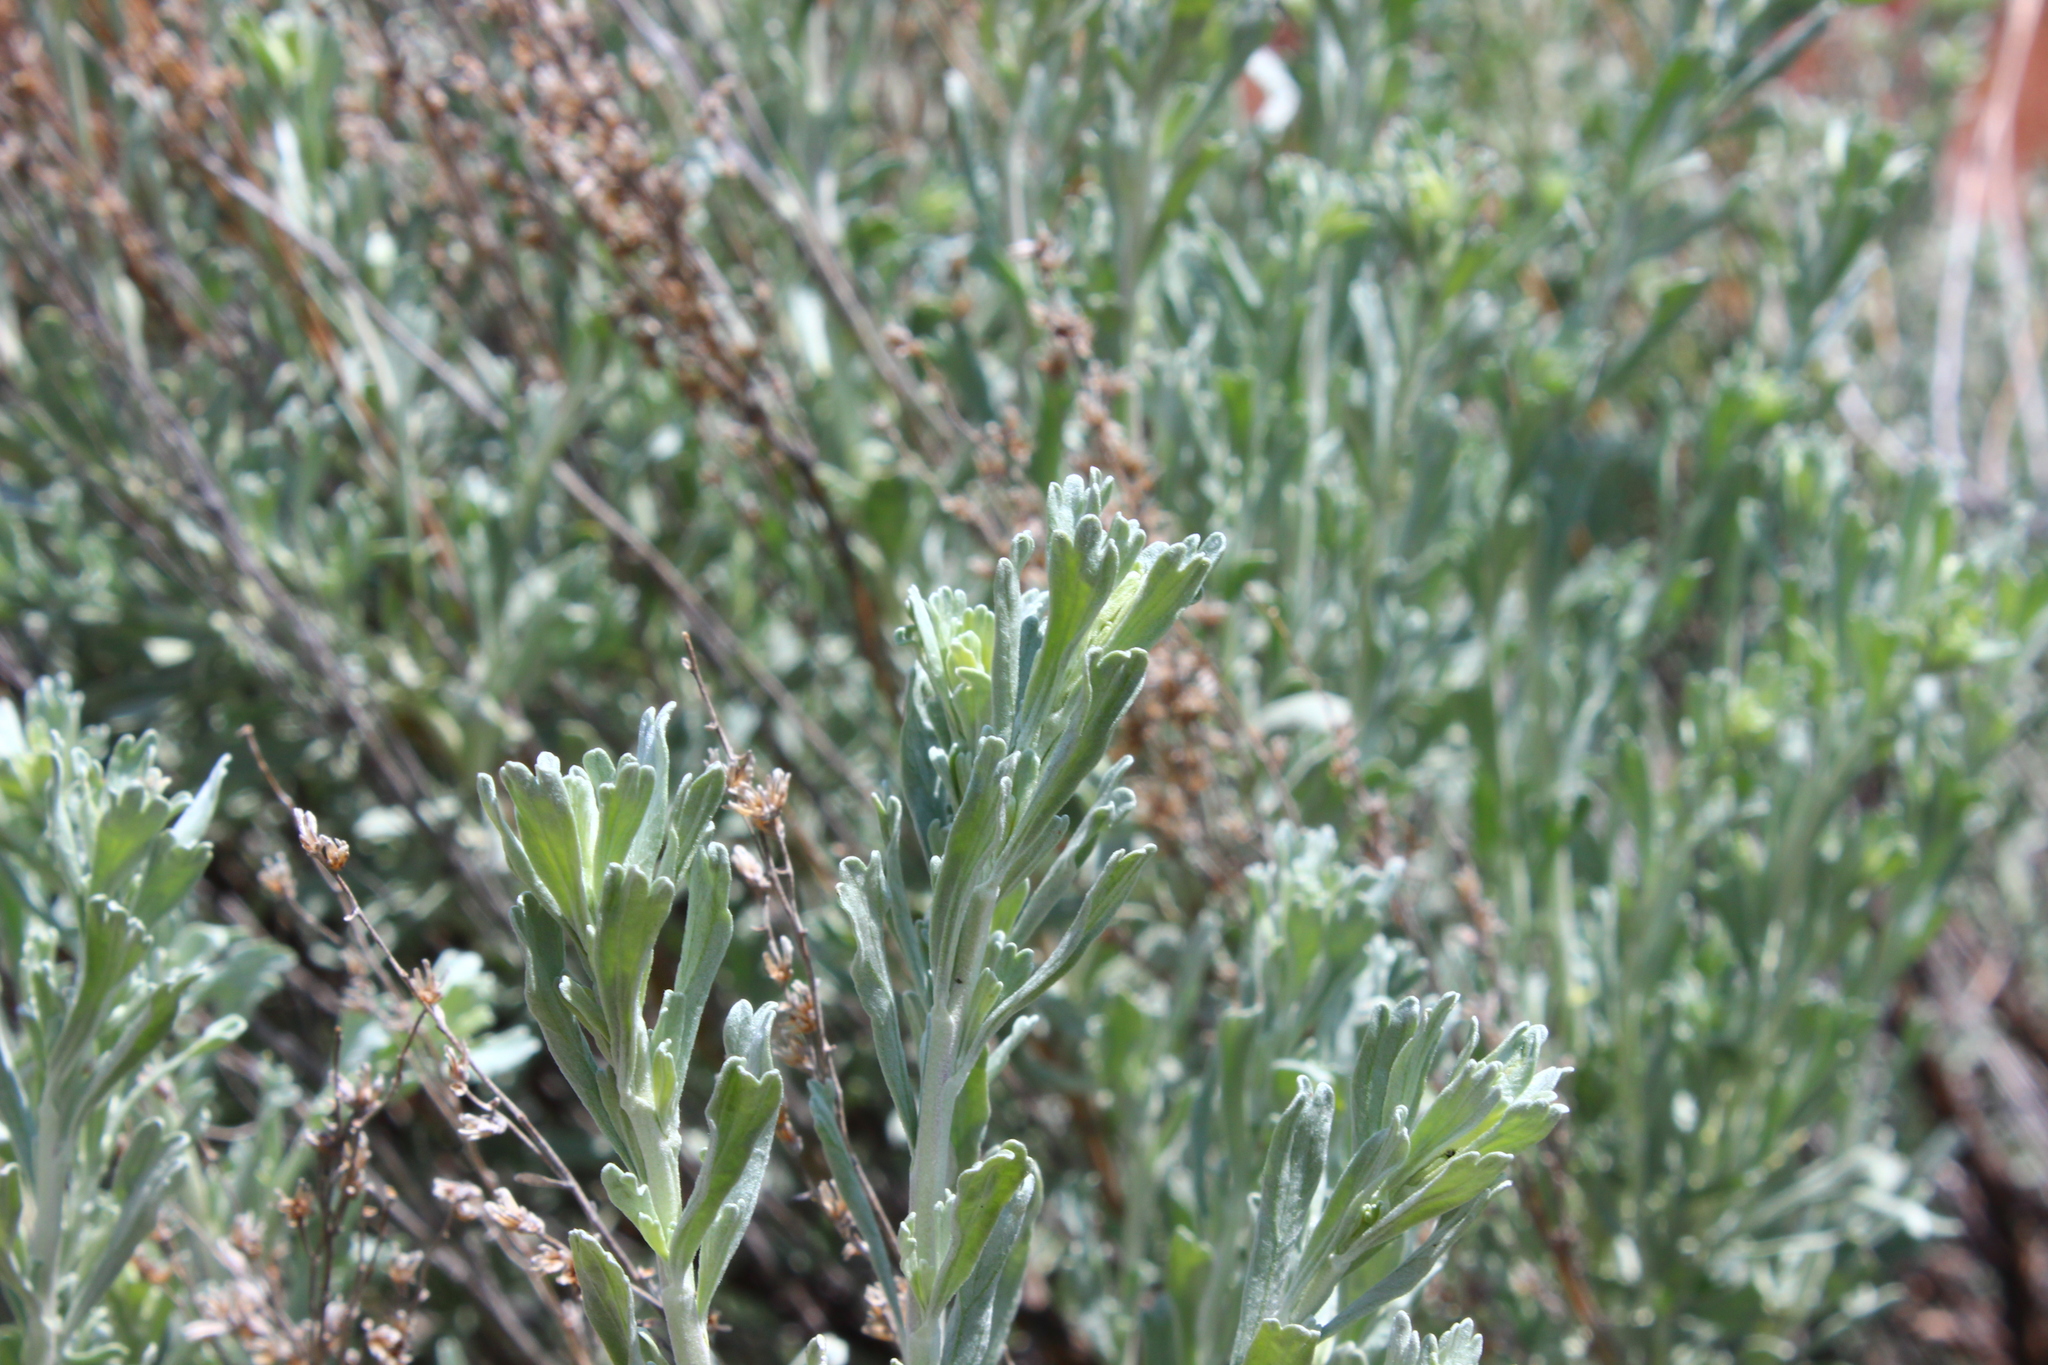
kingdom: Plantae
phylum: Tracheophyta
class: Magnoliopsida
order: Asterales
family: Asteraceae
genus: Artemisia
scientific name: Artemisia tridentata
